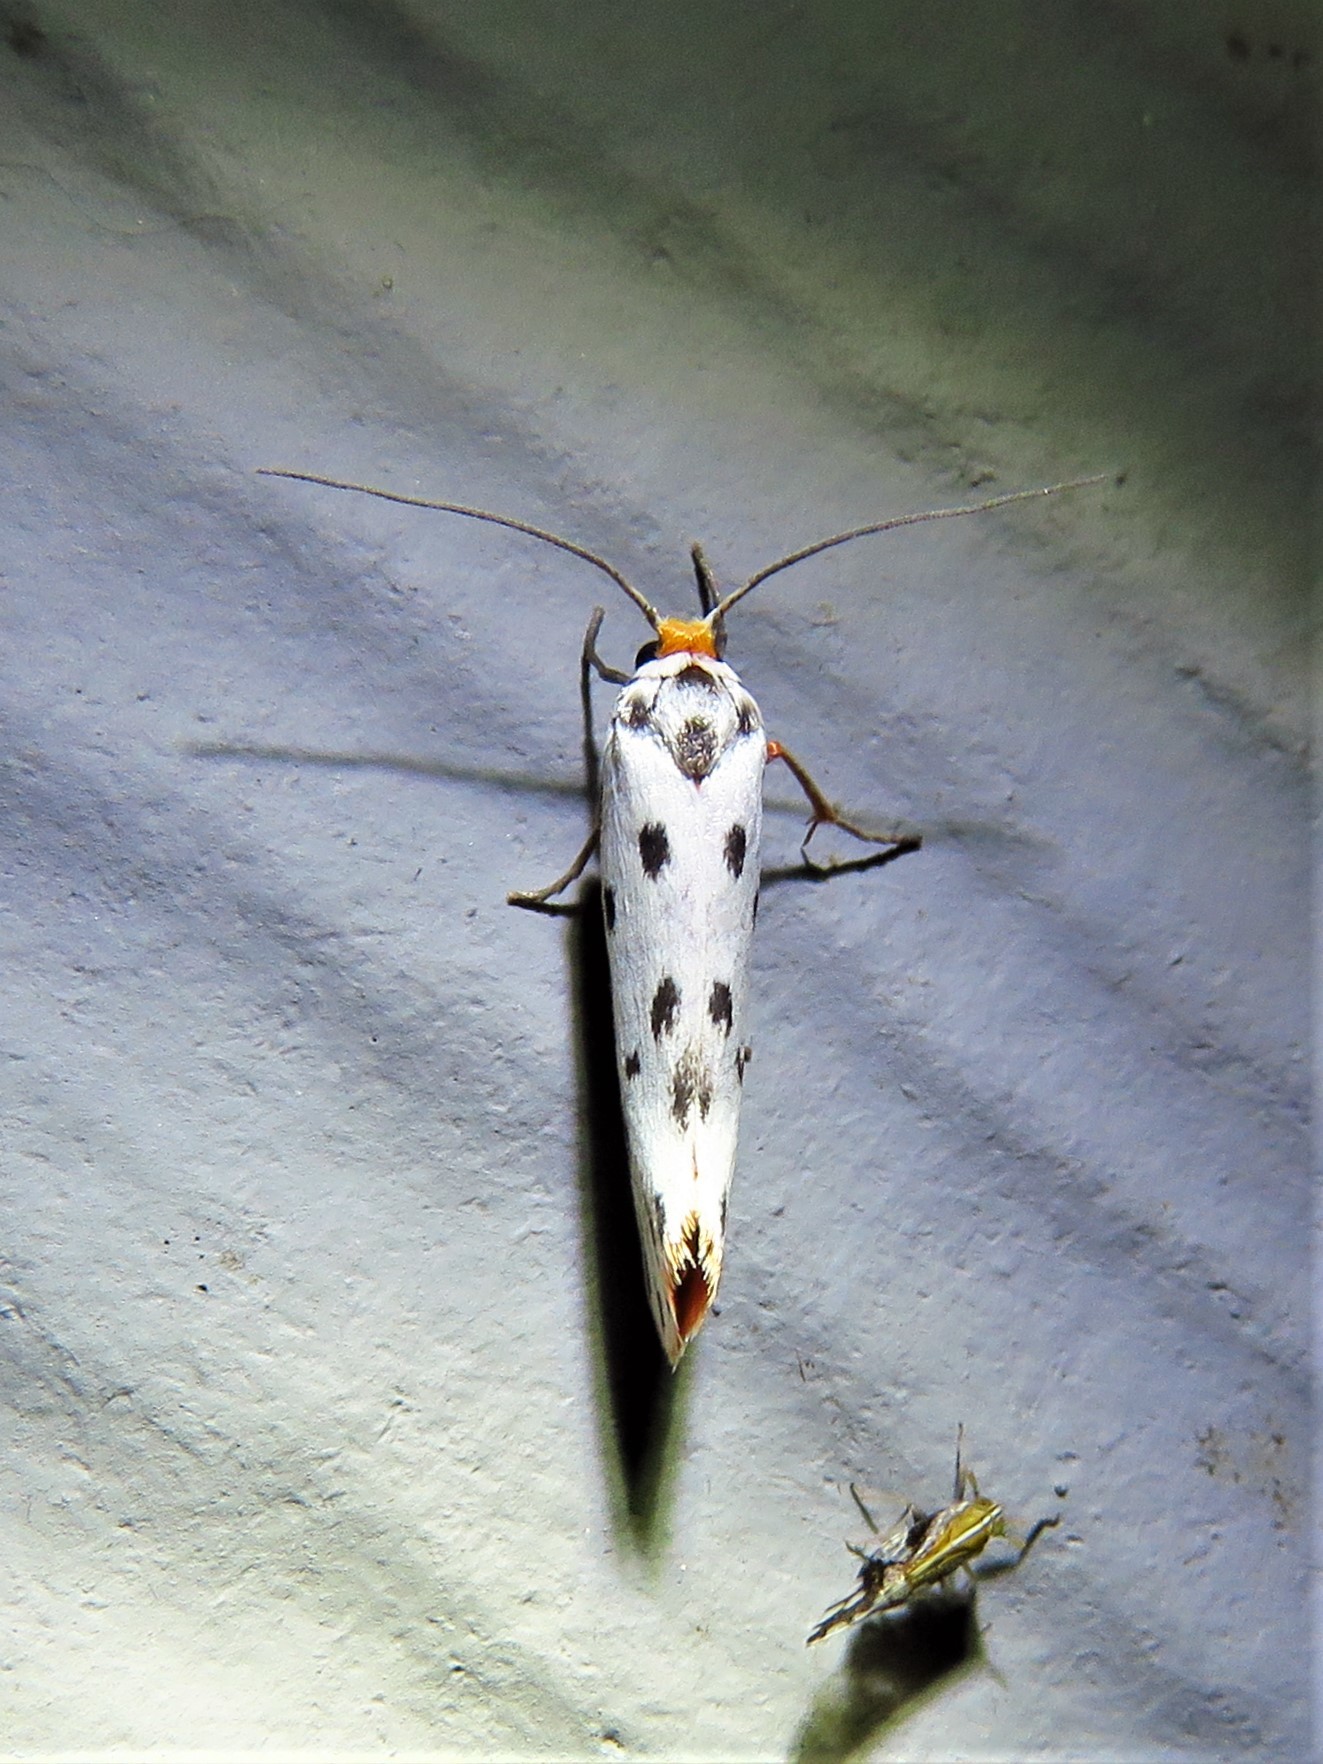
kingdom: Animalia
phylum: Arthropoda
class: Insecta
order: Lepidoptera
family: Lacturidae
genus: Lactura
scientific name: Lactura
